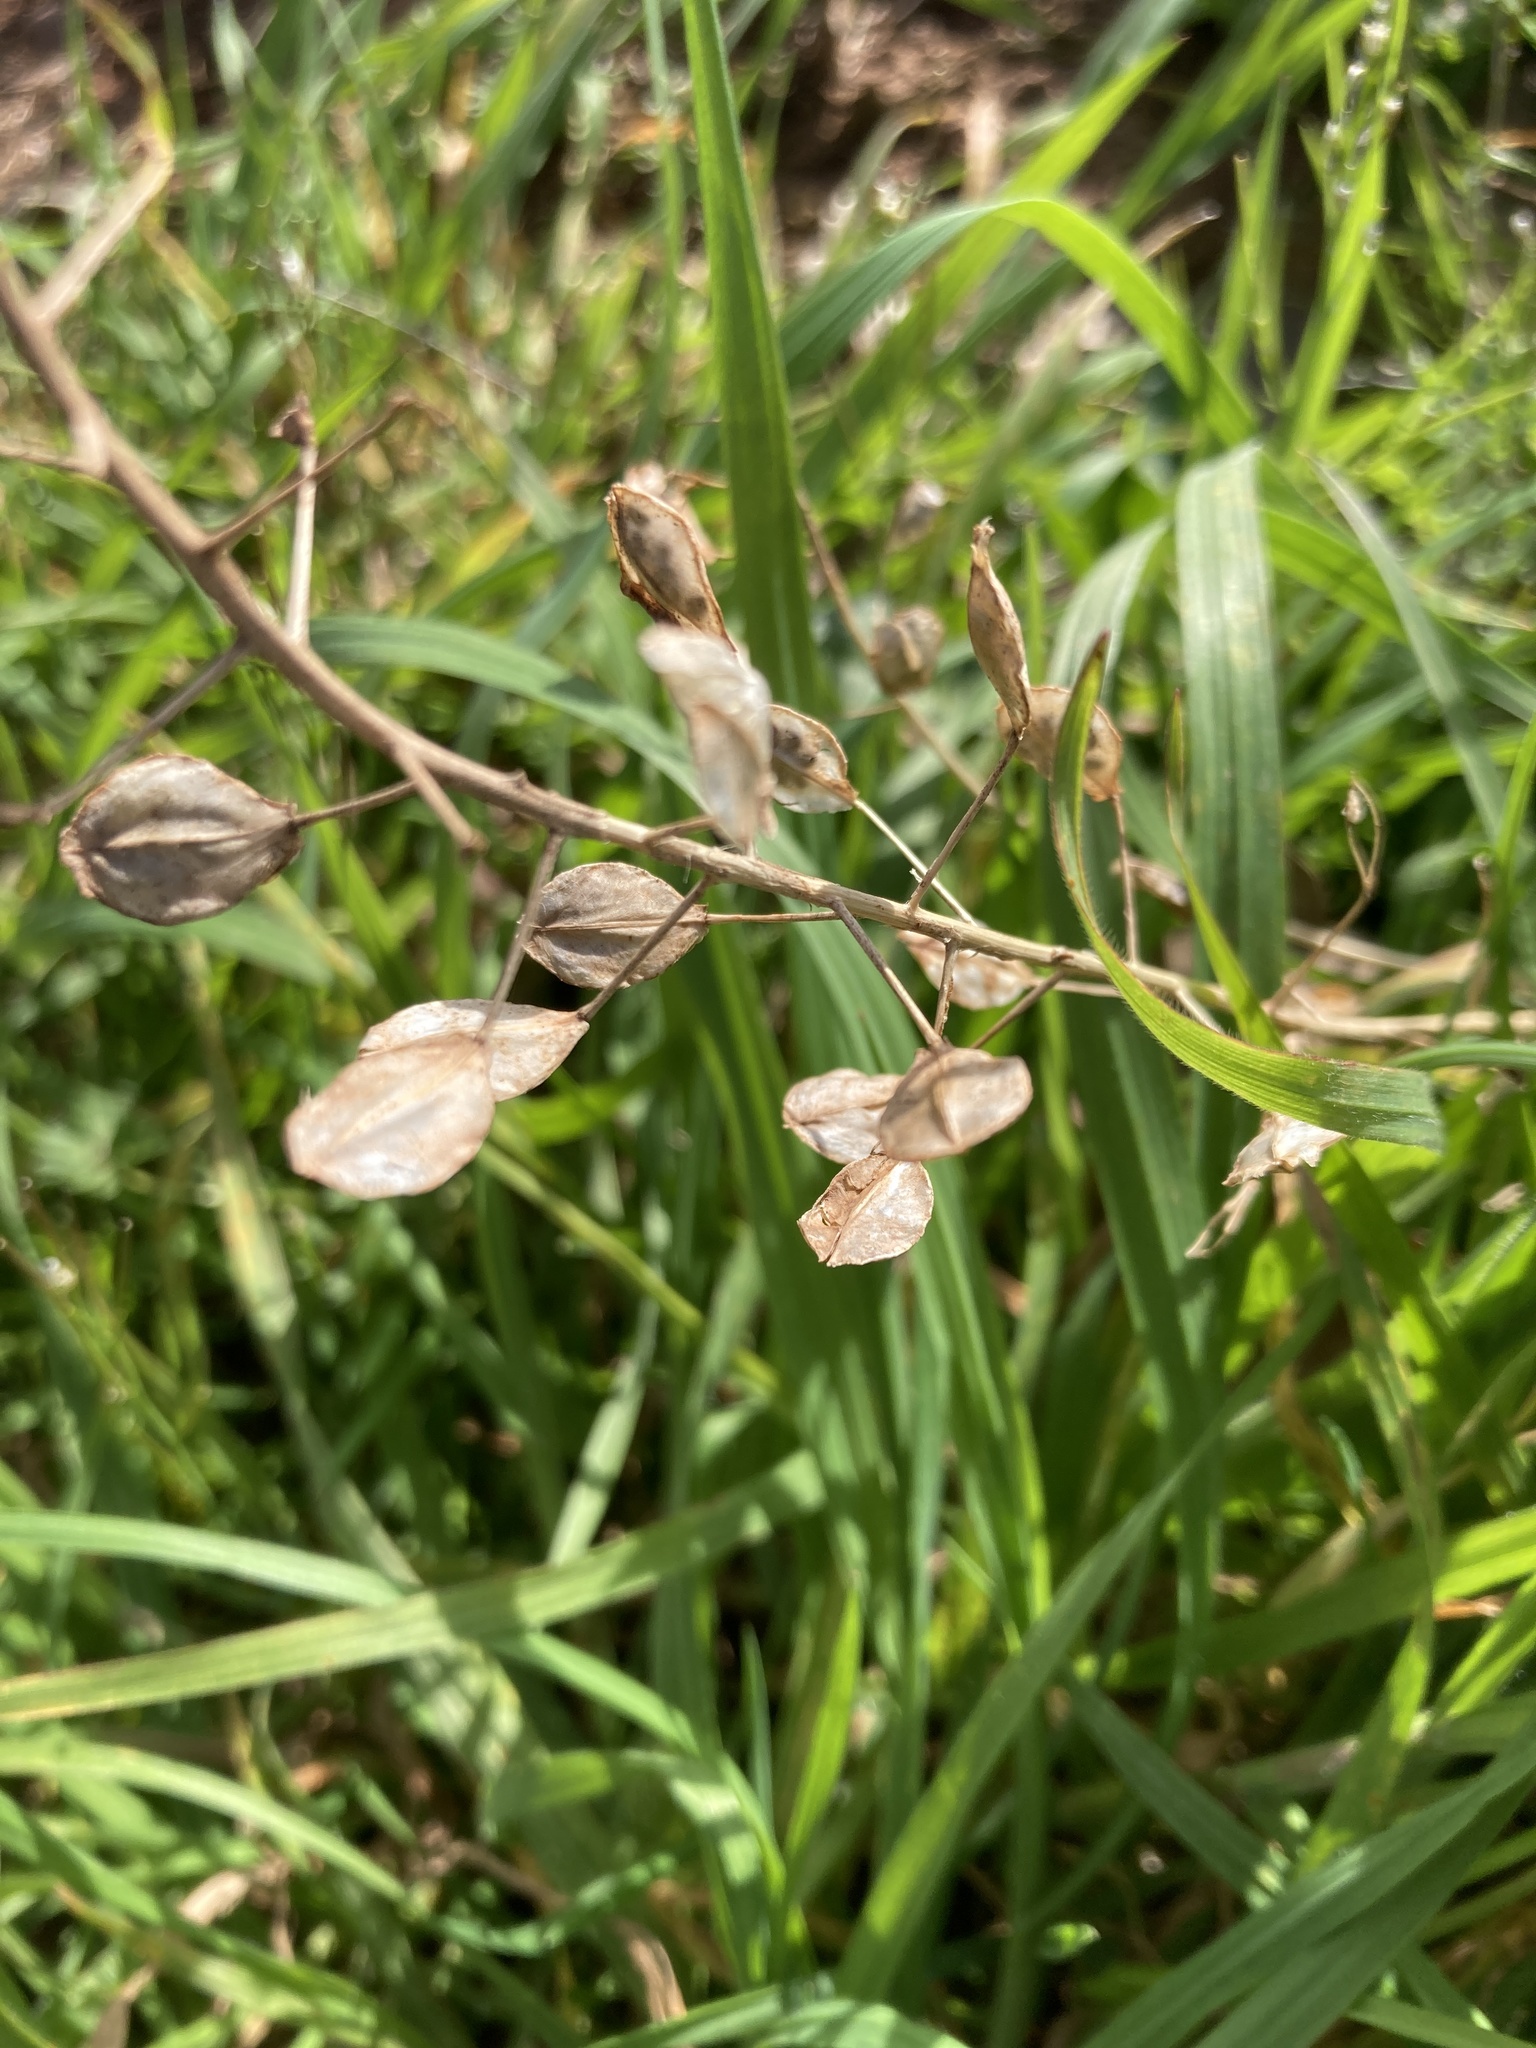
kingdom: Plantae
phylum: Tracheophyta
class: Magnoliopsida
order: Brassicales
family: Brassicaceae
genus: Thlaspi
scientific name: Thlaspi arvense
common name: Field pennycress
